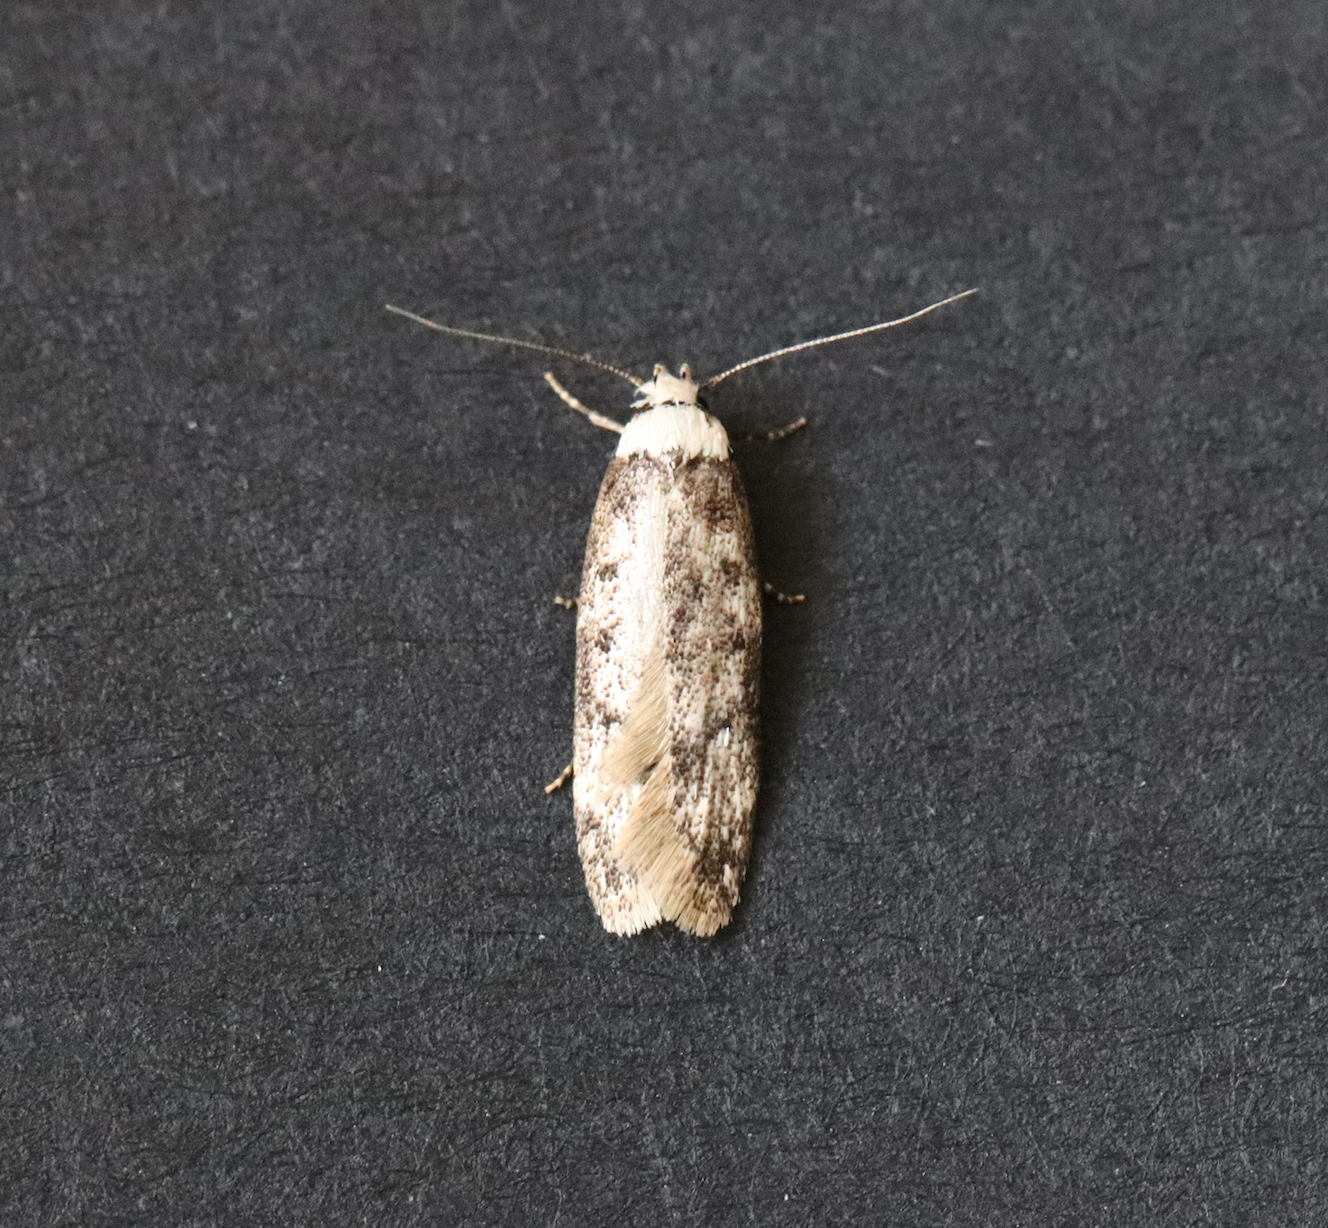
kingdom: Animalia
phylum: Arthropoda
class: Insecta
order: Lepidoptera
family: Oecophoridae
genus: Endrosis
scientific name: Endrosis sarcitrella
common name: White-shouldered house moth
